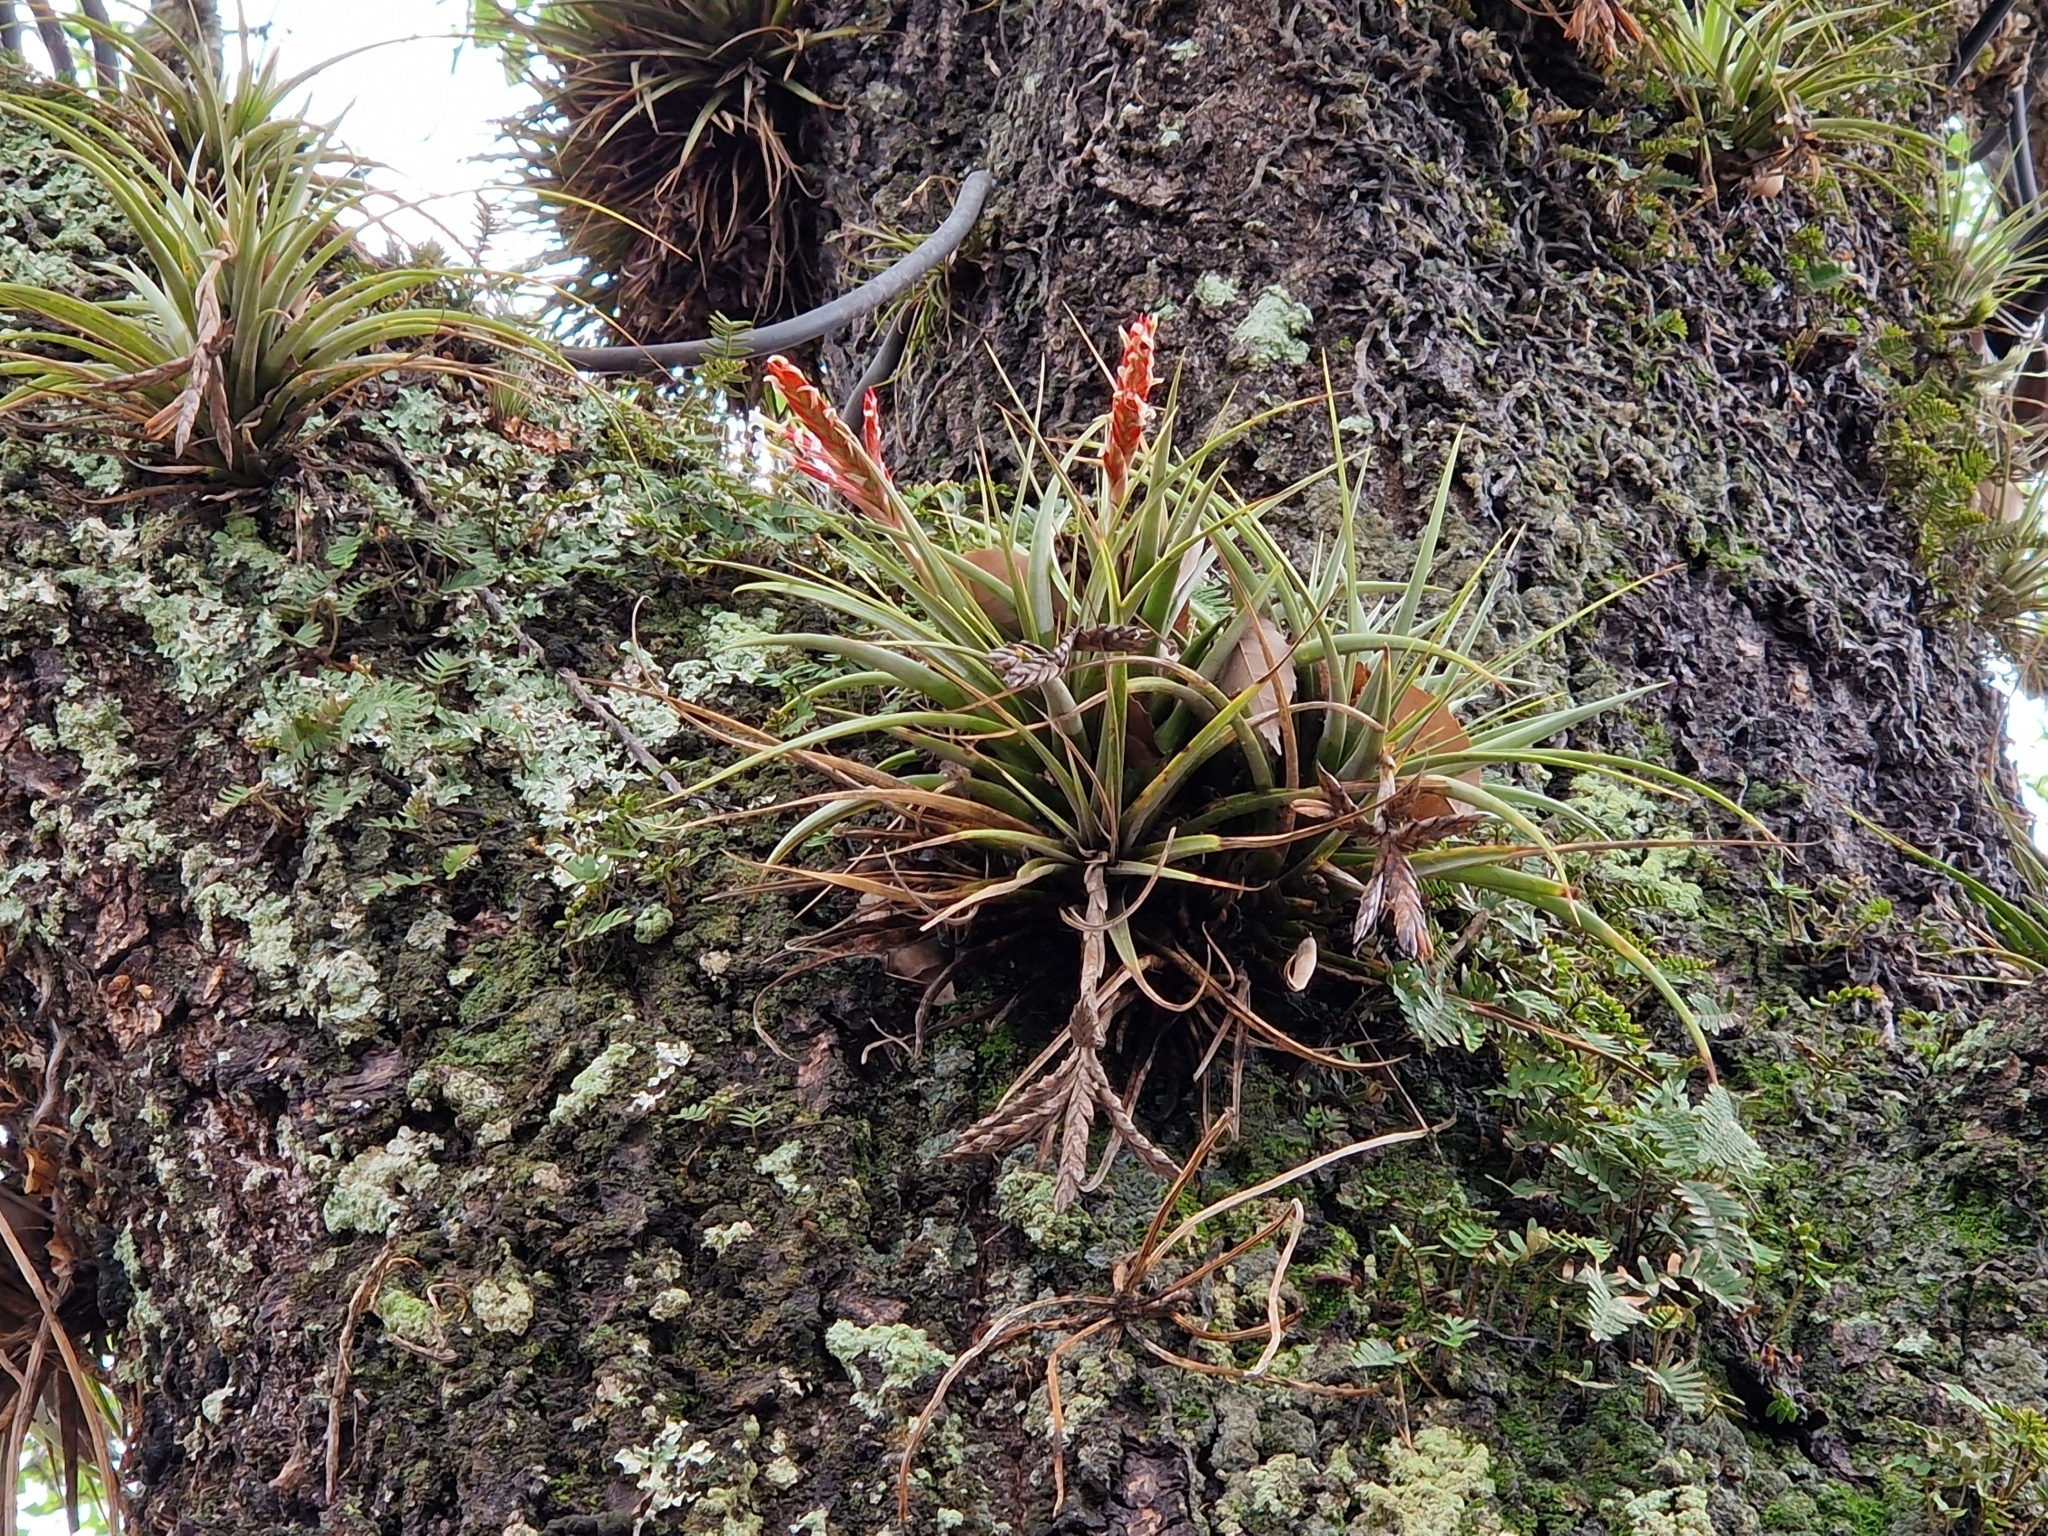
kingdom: Plantae
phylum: Tracheophyta
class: Liliopsida
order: Poales
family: Bromeliaceae
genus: Tillandsia
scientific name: Tillandsia vernicosa
